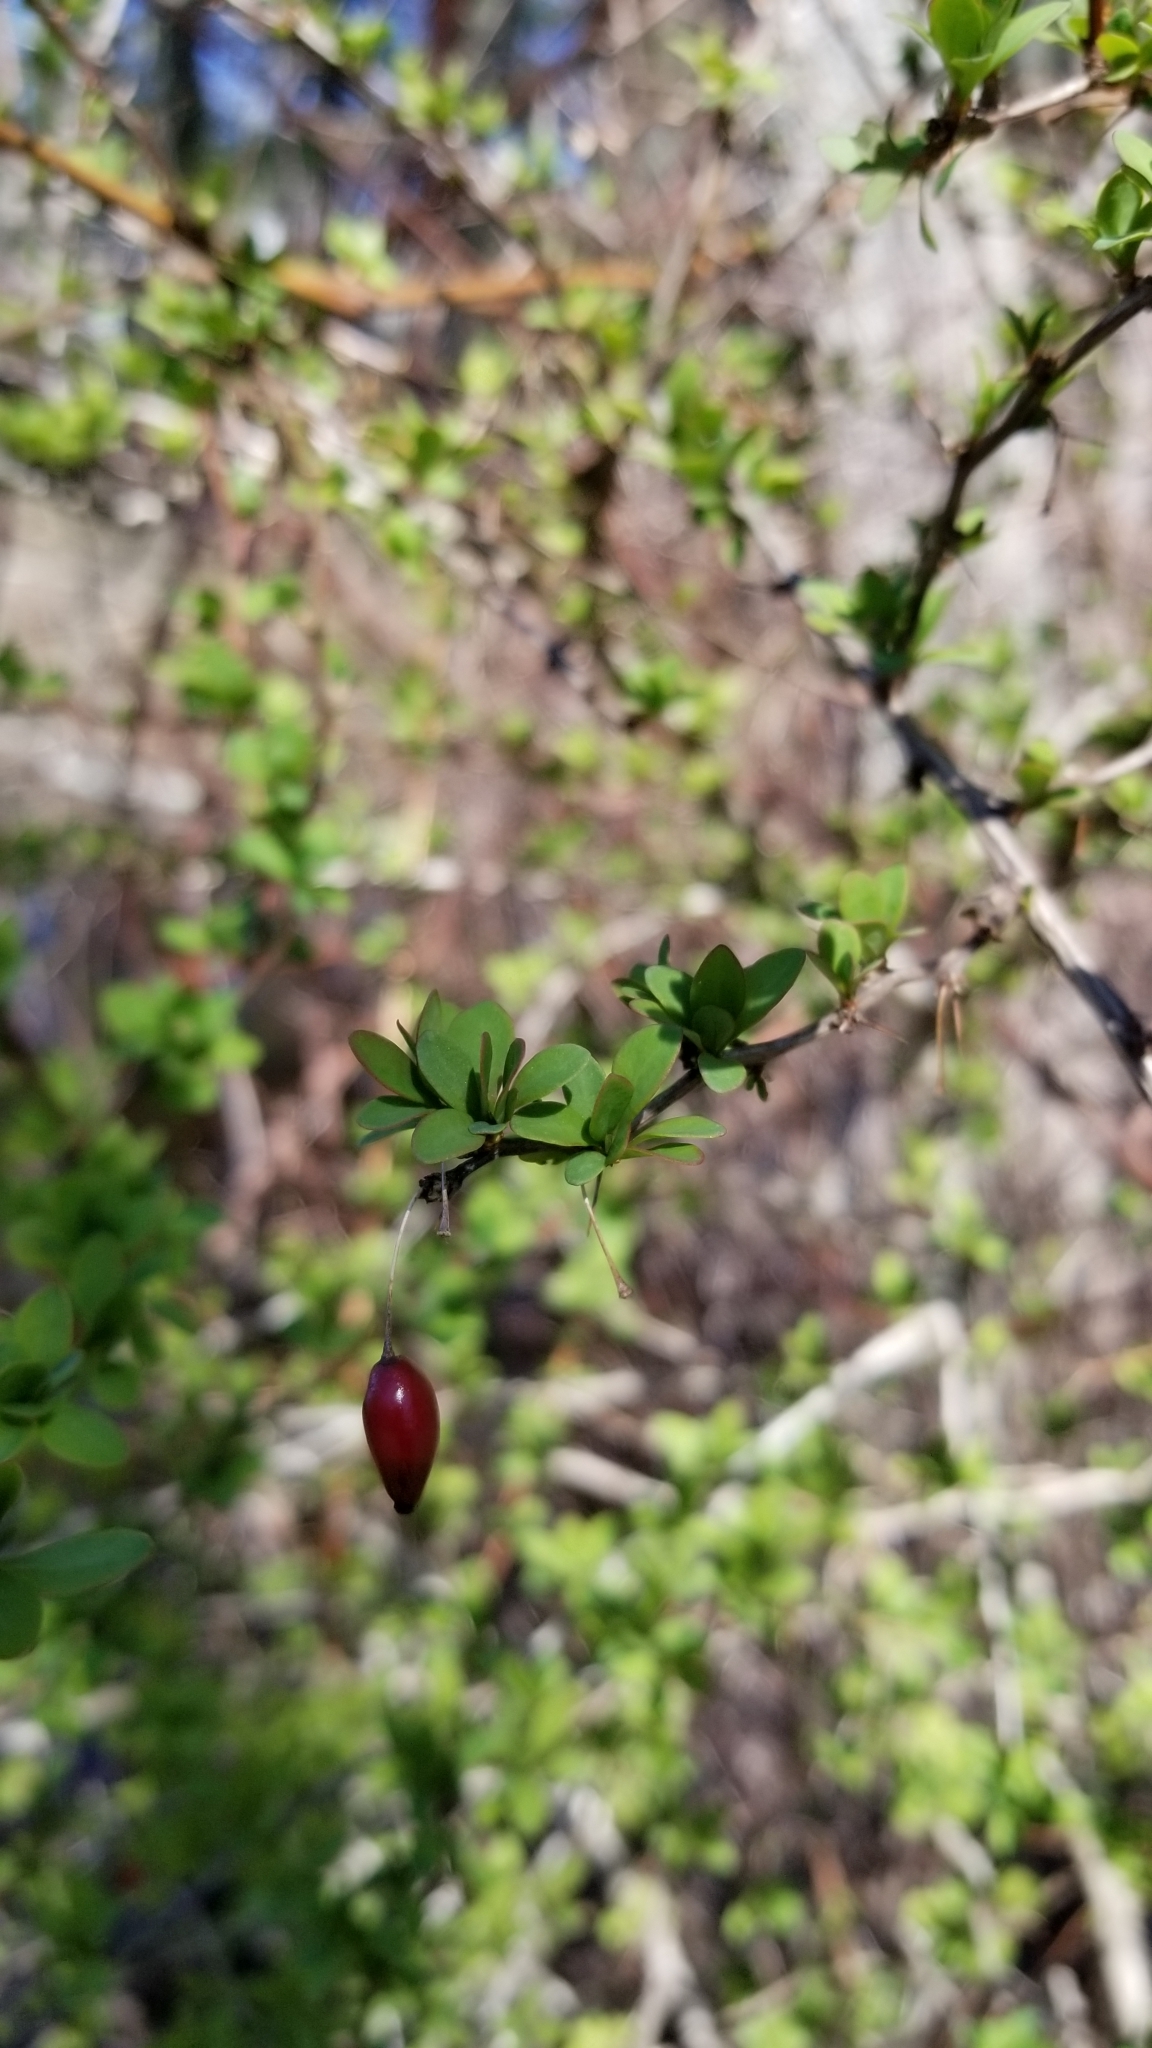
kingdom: Plantae
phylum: Tracheophyta
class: Magnoliopsida
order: Ranunculales
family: Berberidaceae
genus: Berberis
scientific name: Berberis thunbergii
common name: Japanese barberry
